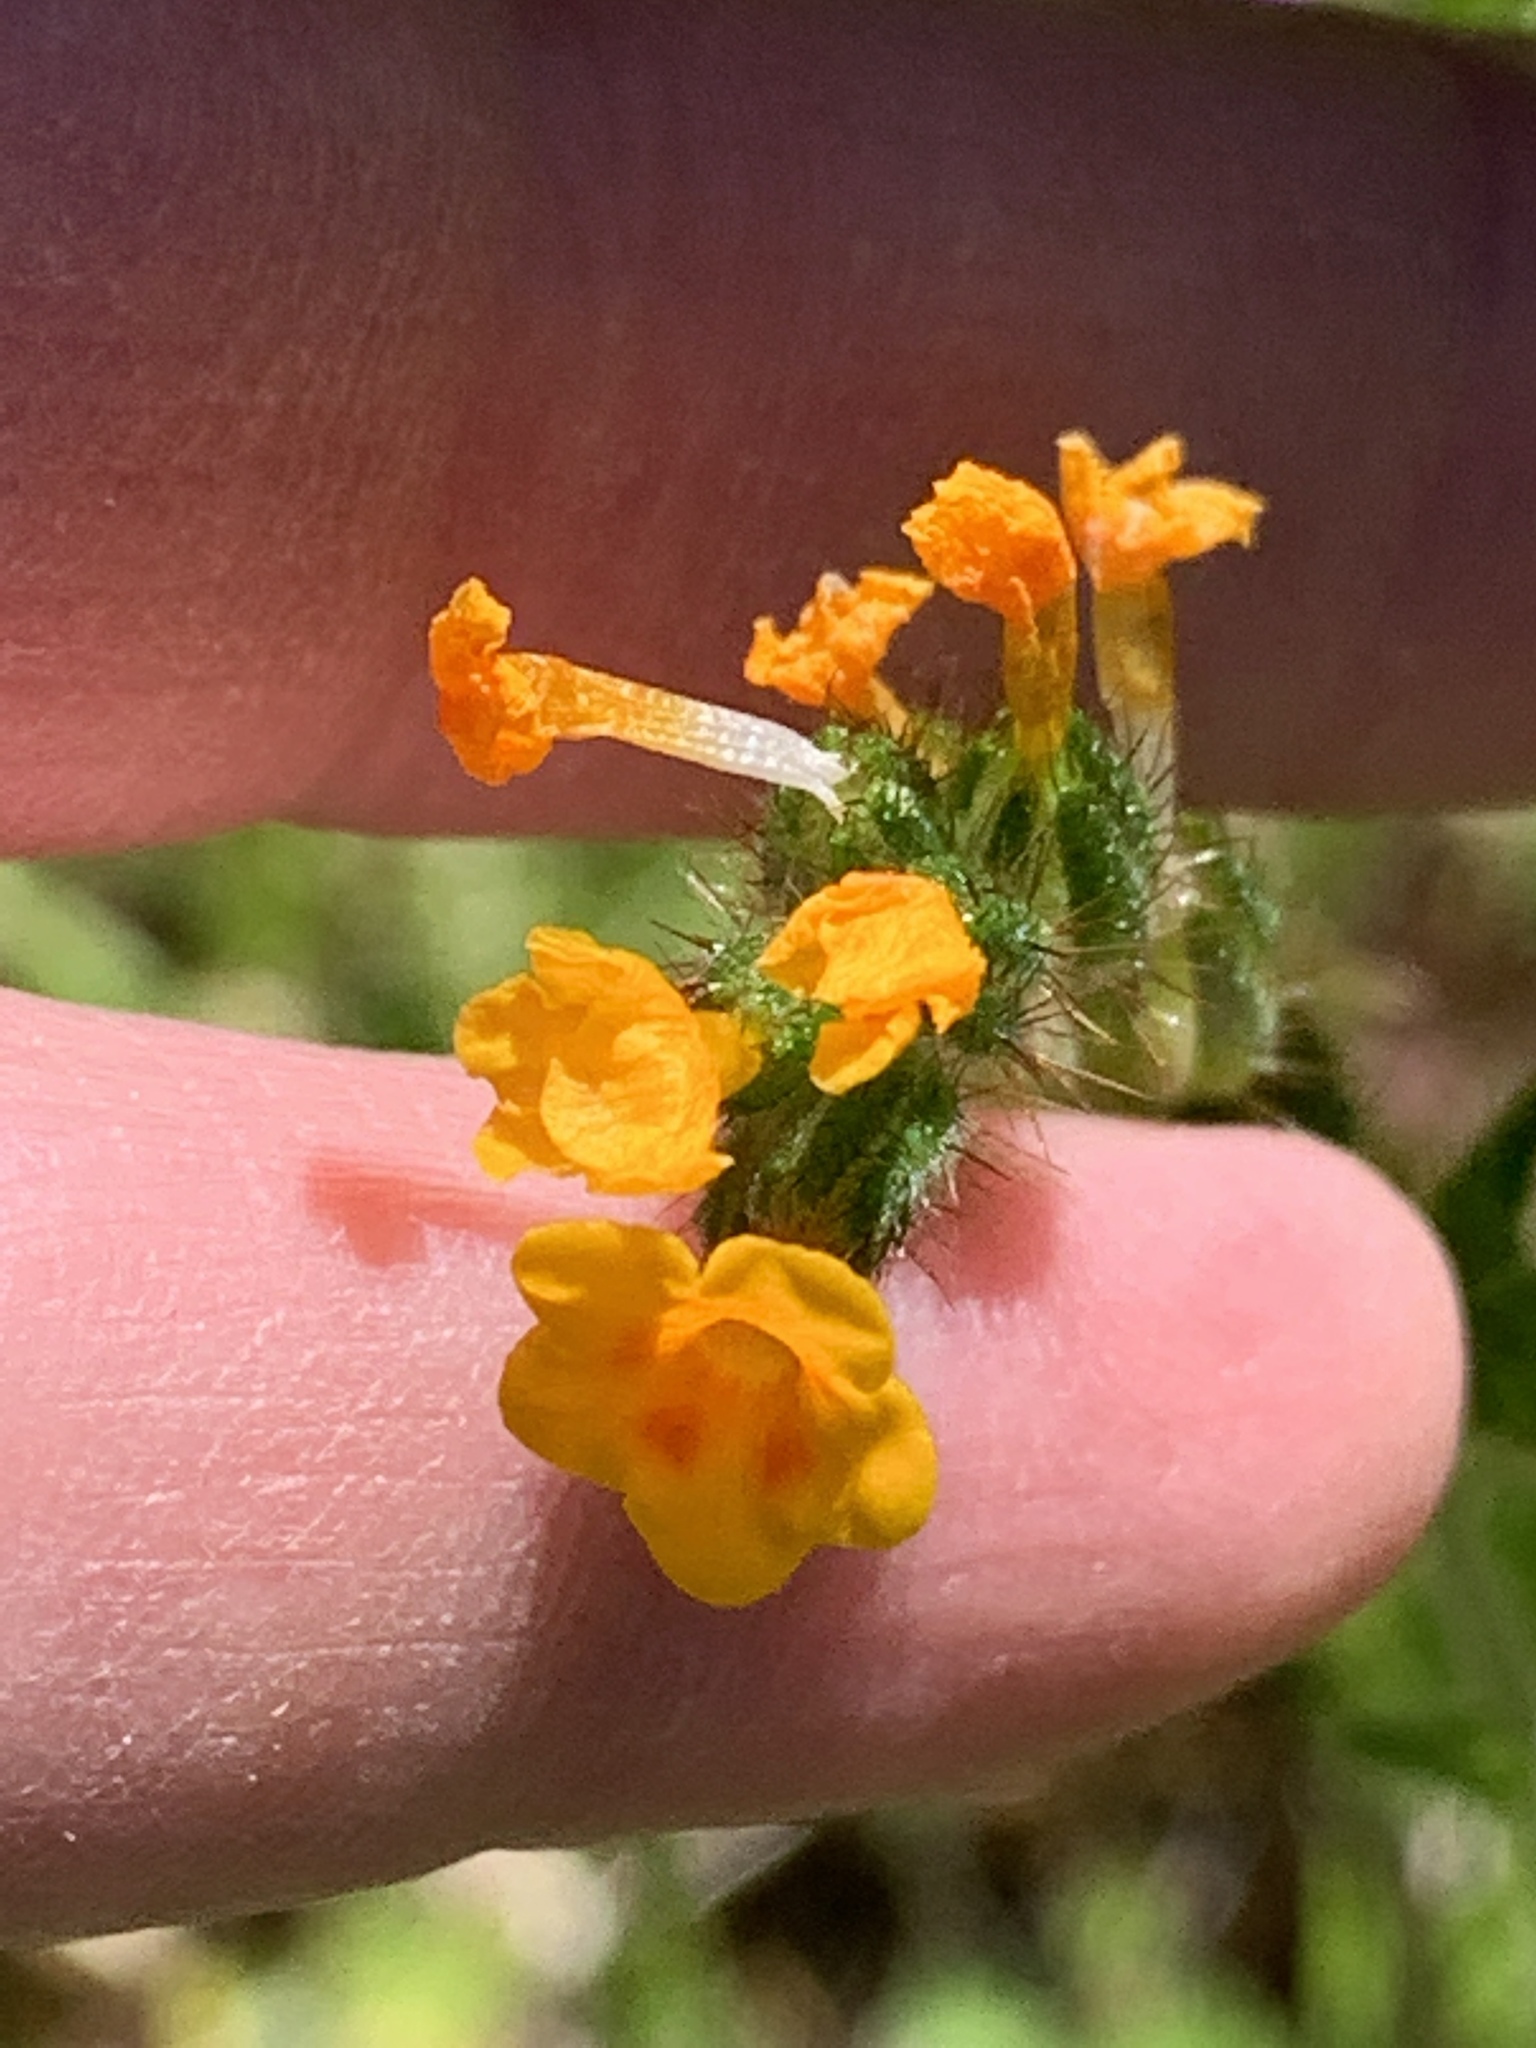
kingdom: Plantae
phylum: Tracheophyta
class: Magnoliopsida
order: Boraginales
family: Boraginaceae
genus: Amsinckia
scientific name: Amsinckia menziesii
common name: Menzies' fiddleneck
